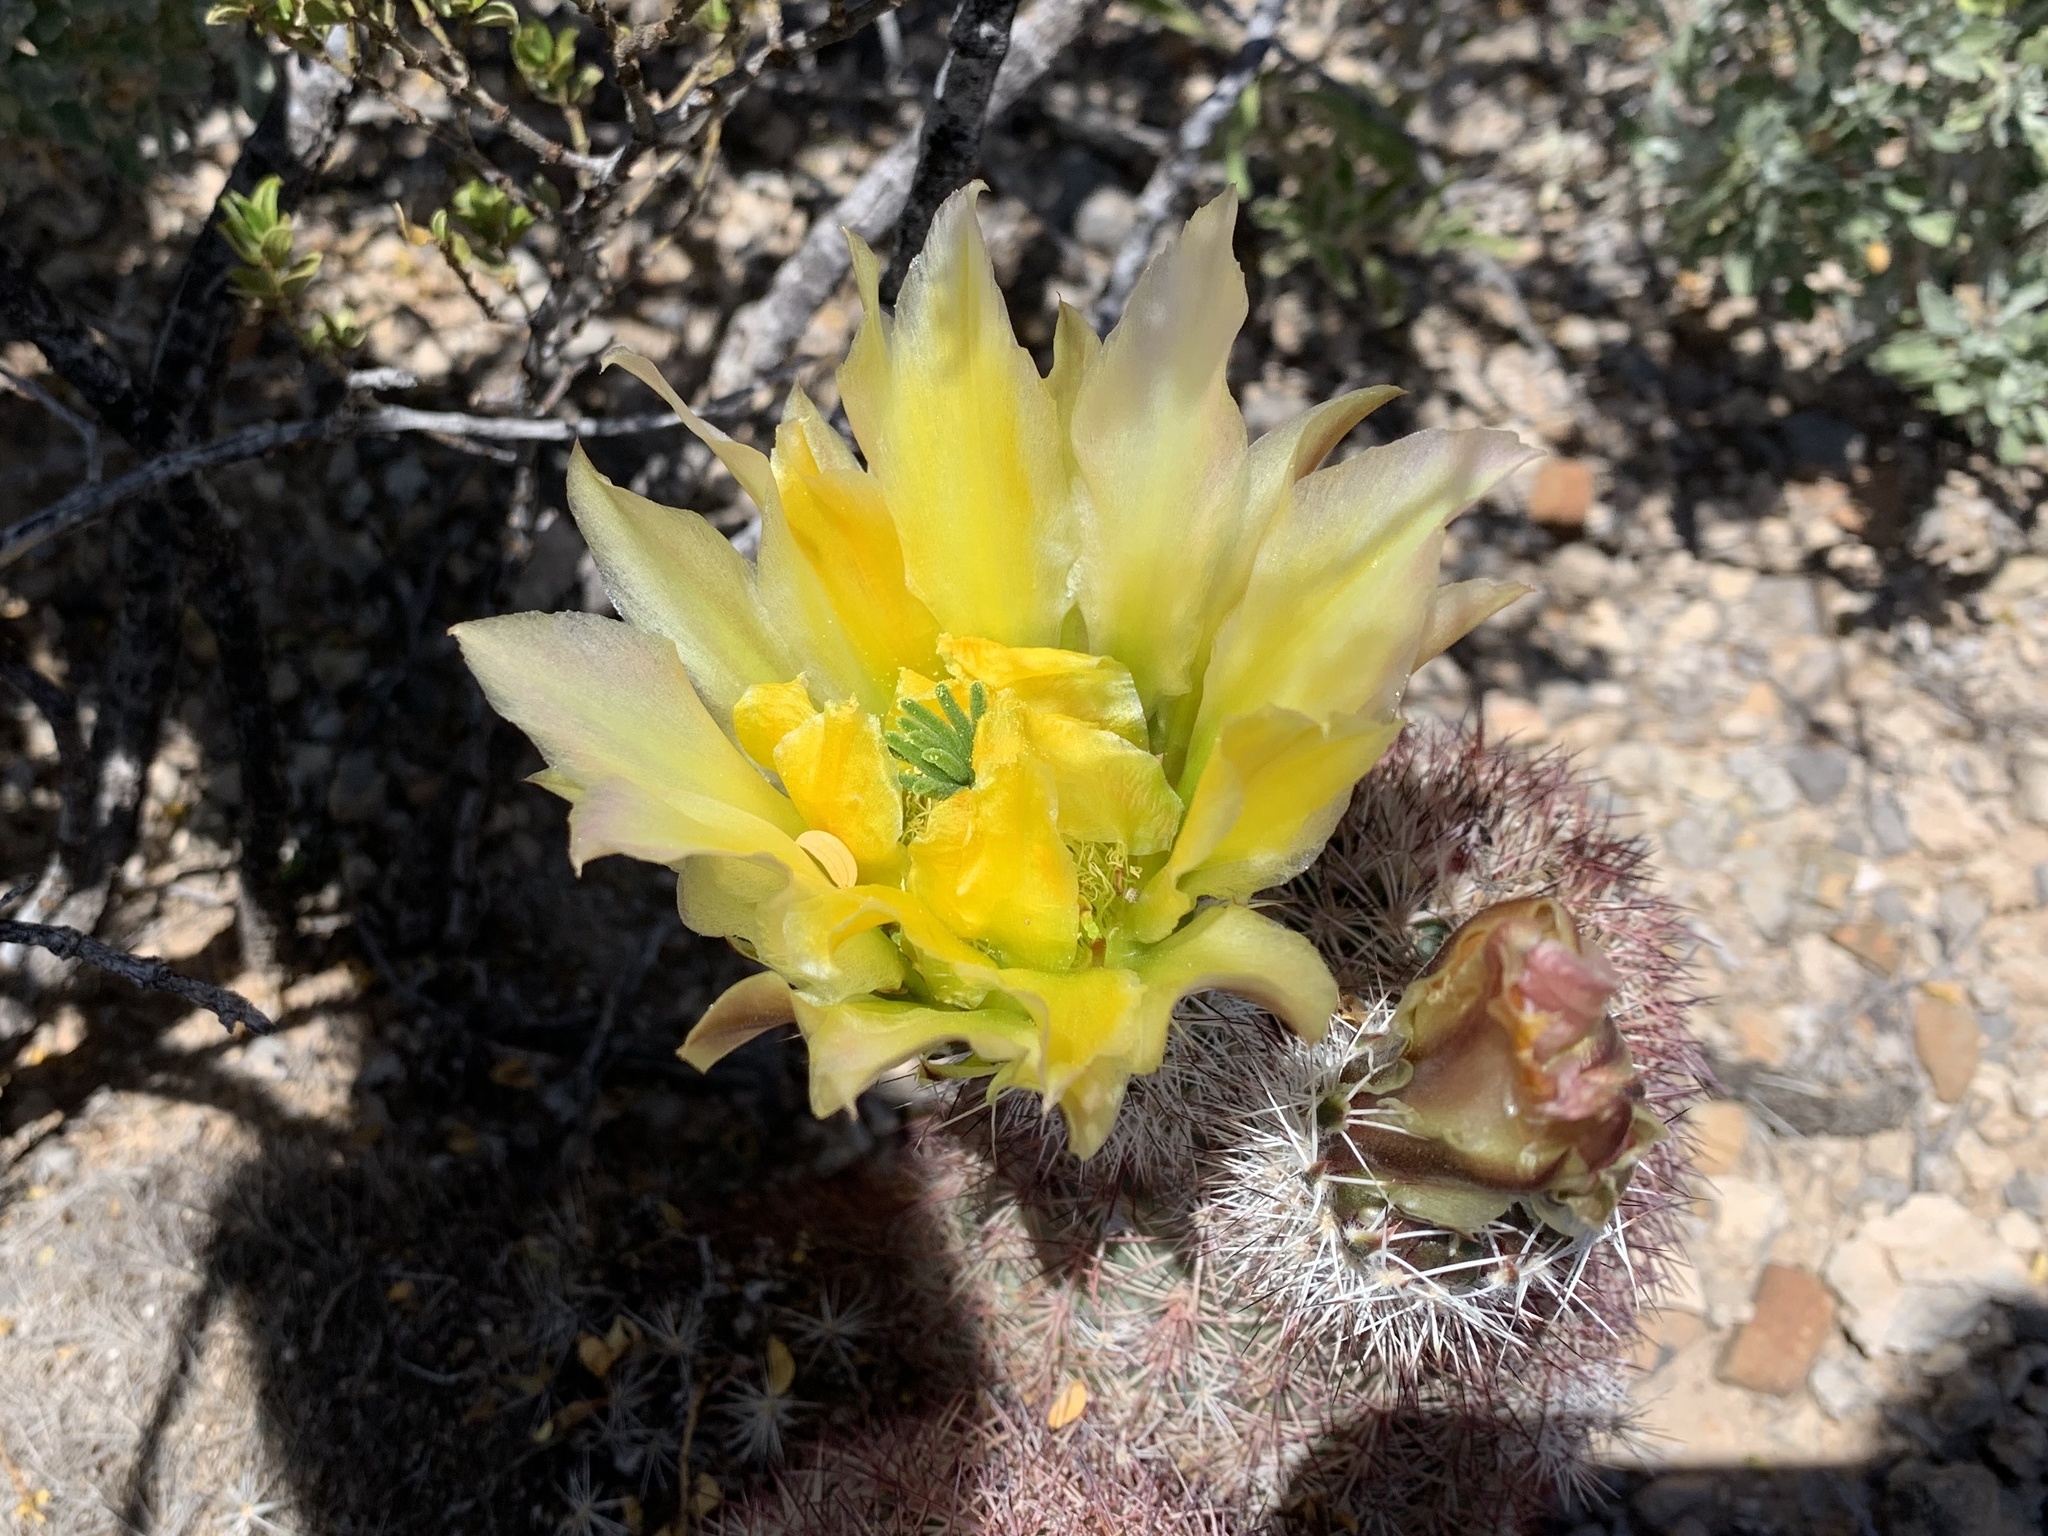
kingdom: Plantae
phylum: Tracheophyta
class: Magnoliopsida
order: Caryophyllales
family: Cactaceae
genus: Echinocereus
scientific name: Echinocereus dasyacanthus
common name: Spiny hedgehog cactus
